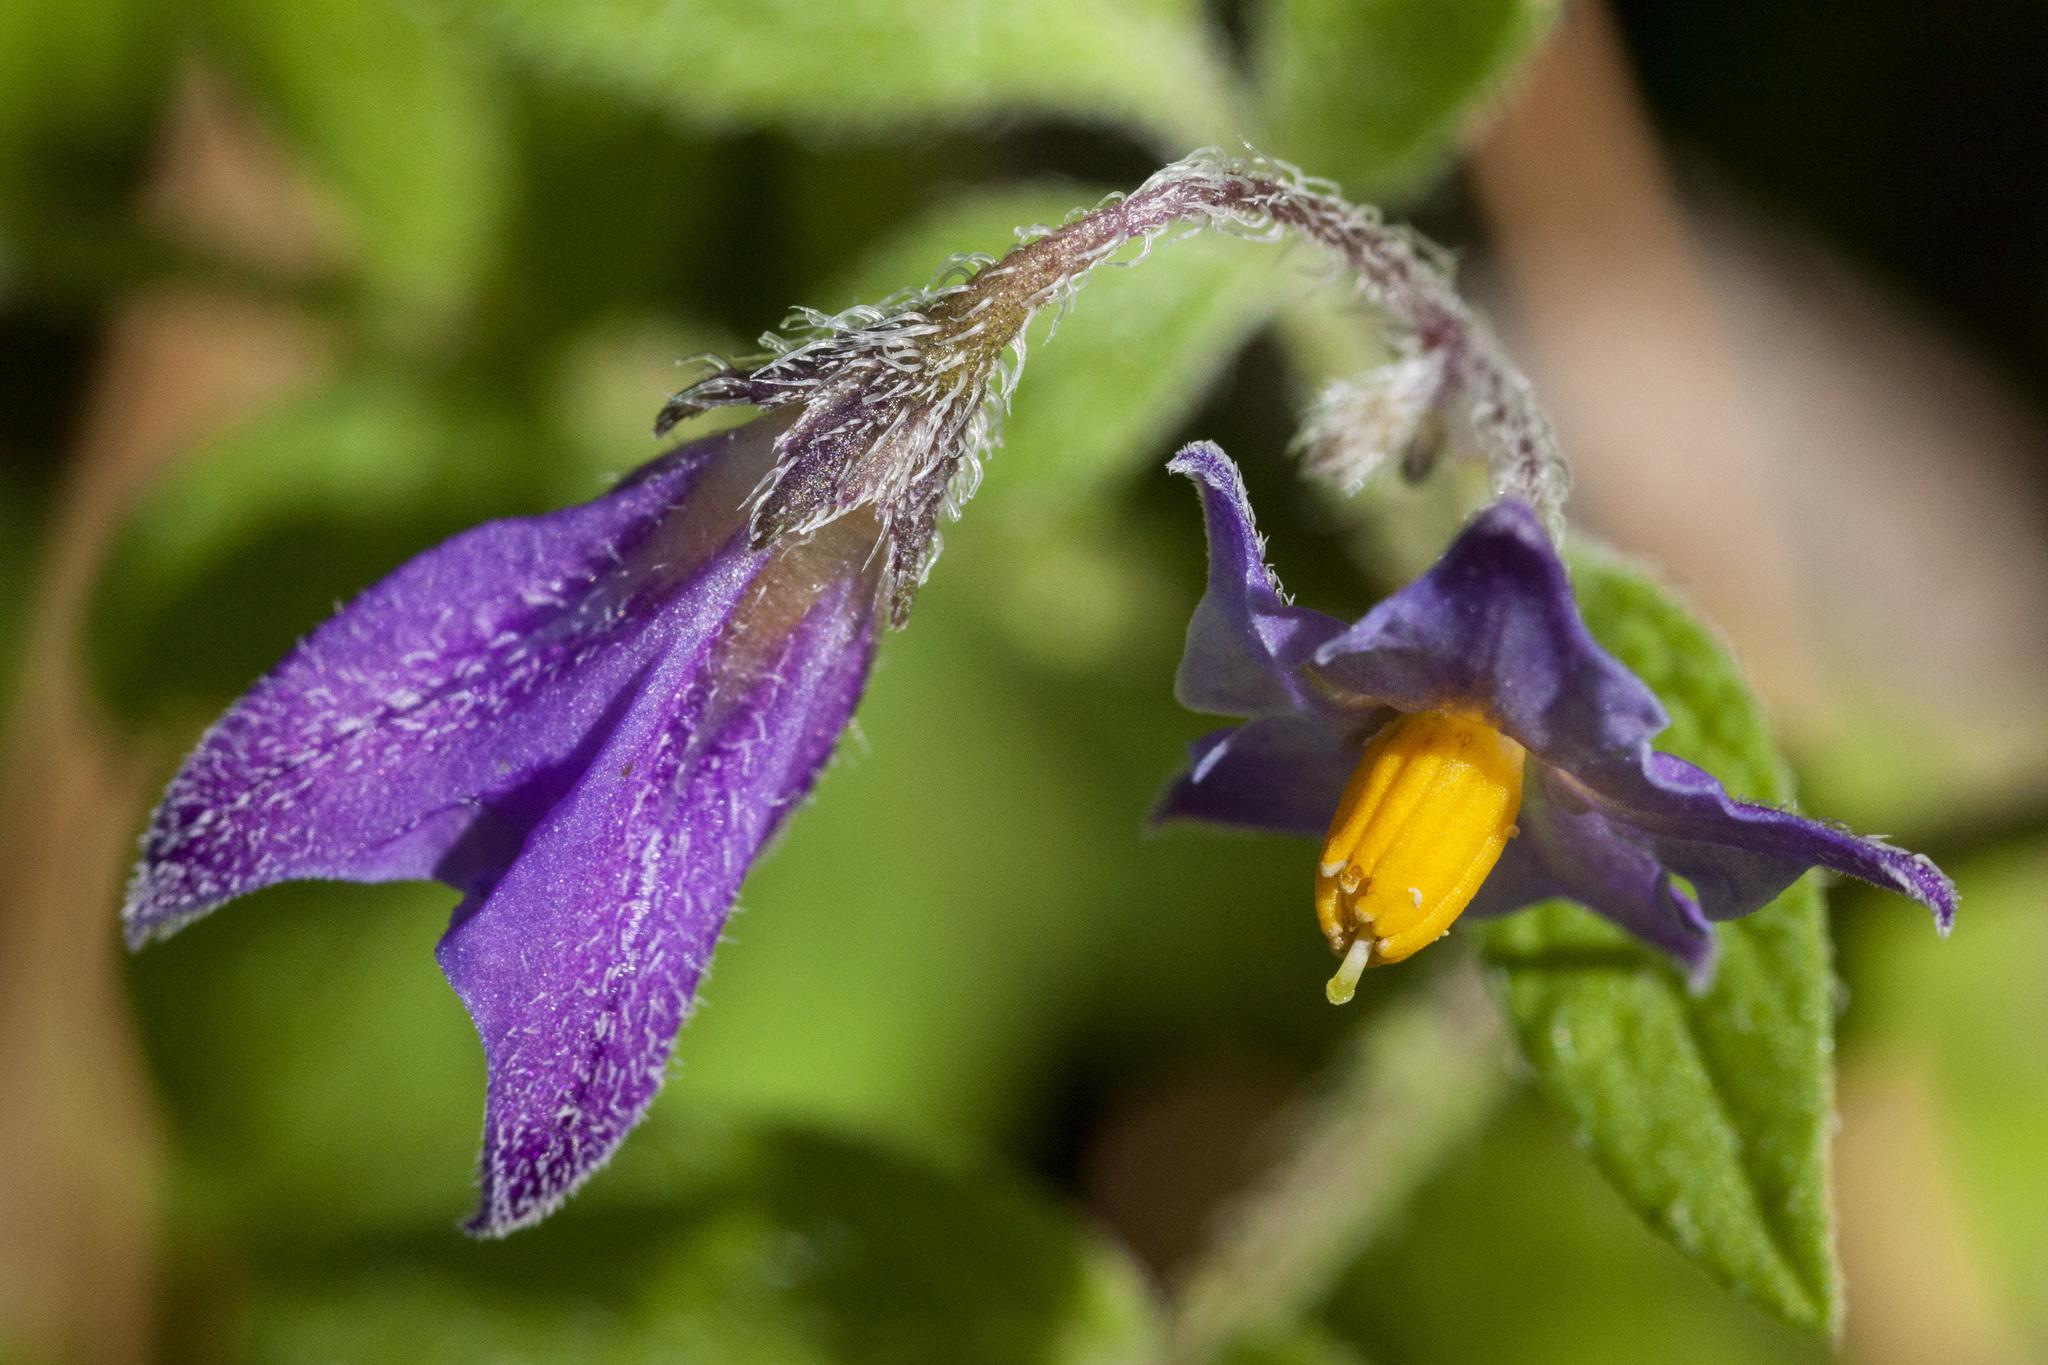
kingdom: Plantae
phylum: Tracheophyta
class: Magnoliopsida
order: Solanales
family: Solanaceae
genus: Solanum
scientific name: Solanum stoloniferum
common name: Fendler's nighshade
